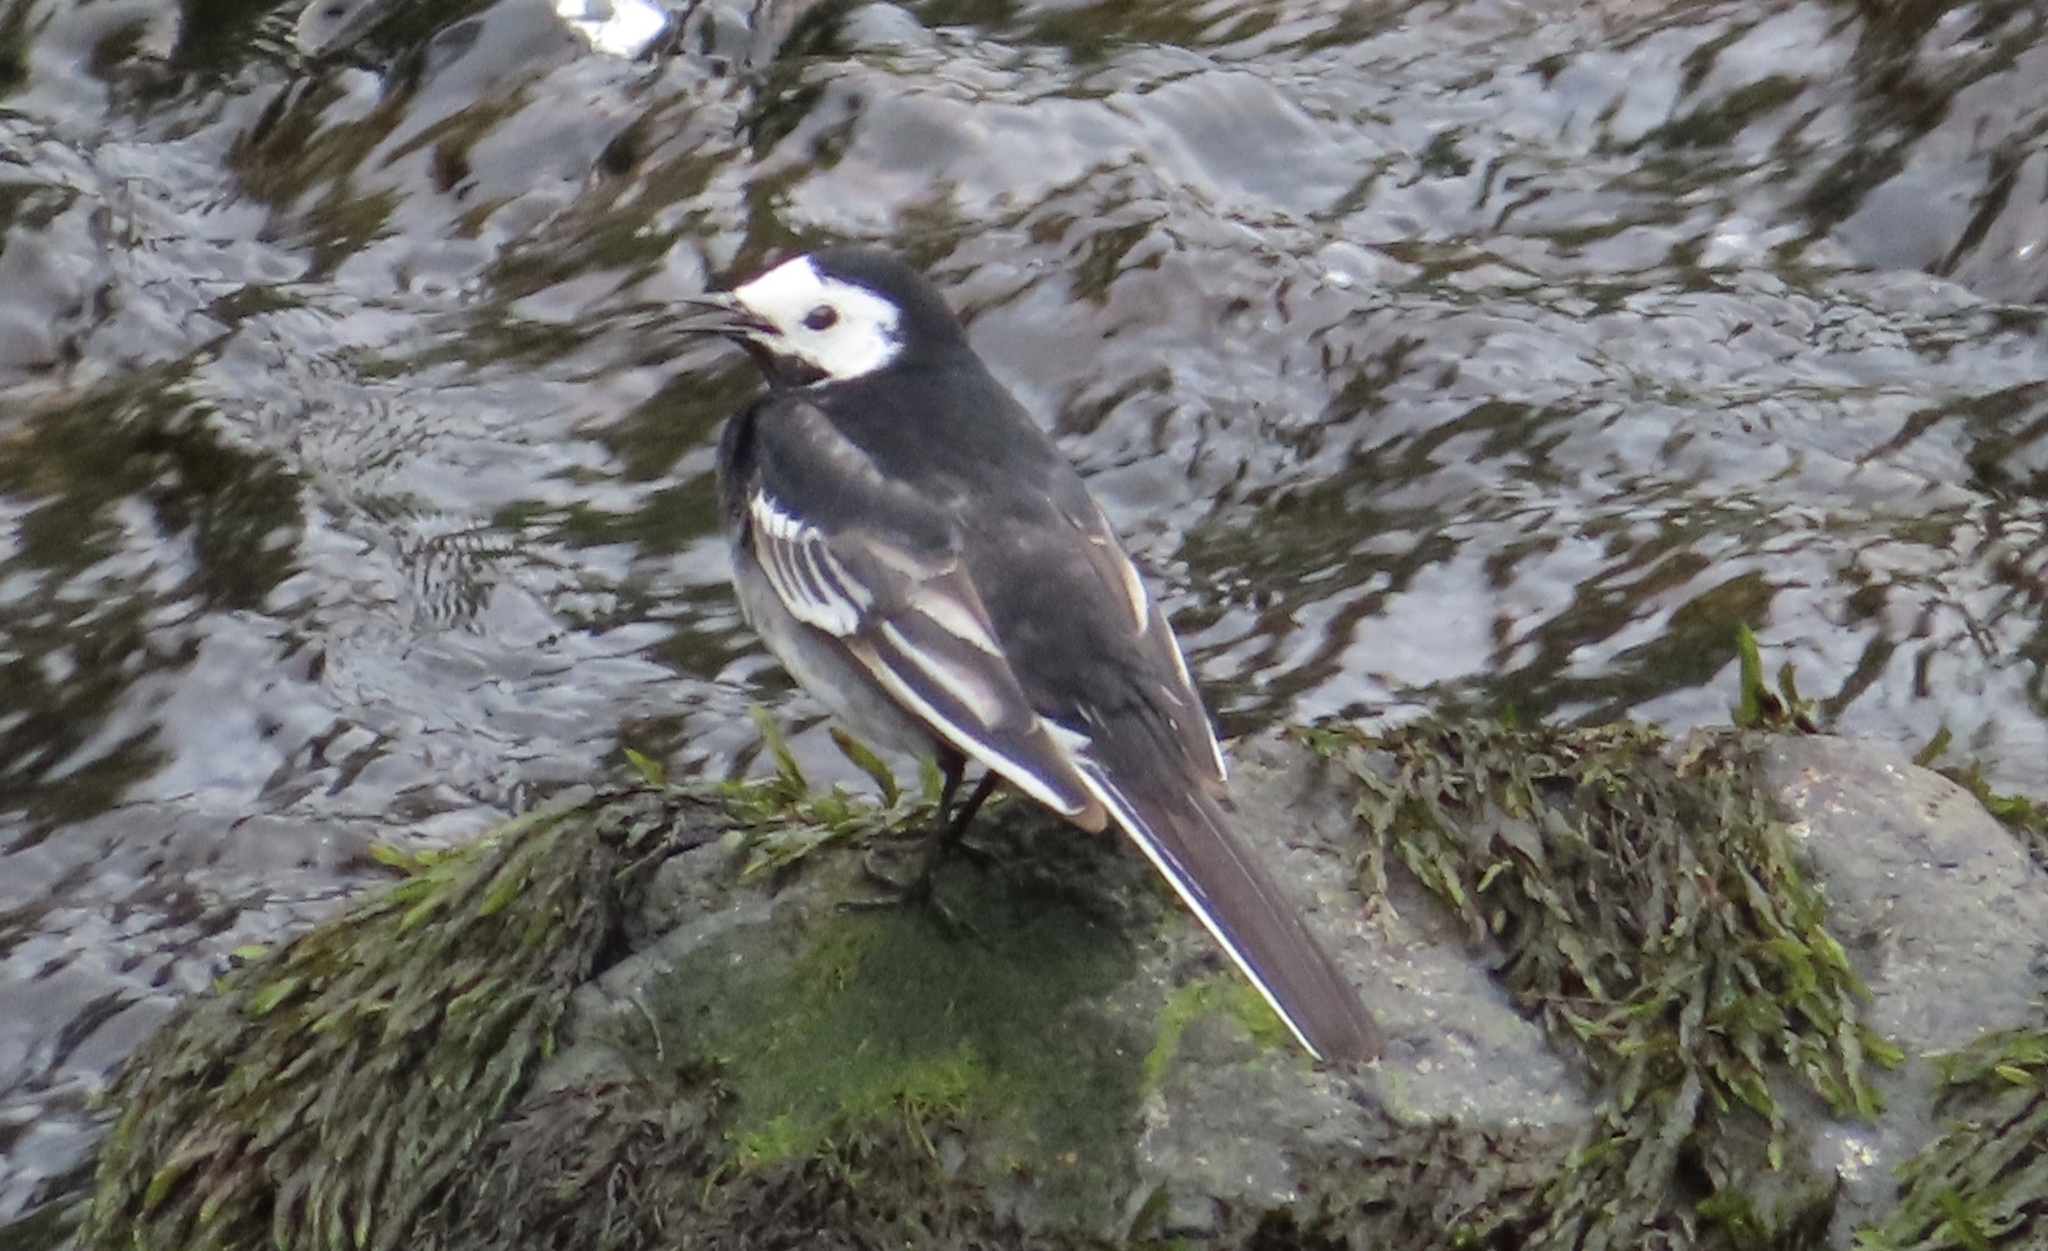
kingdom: Animalia
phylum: Chordata
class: Aves
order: Passeriformes
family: Motacillidae
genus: Motacilla
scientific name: Motacilla alba
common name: White wagtail
